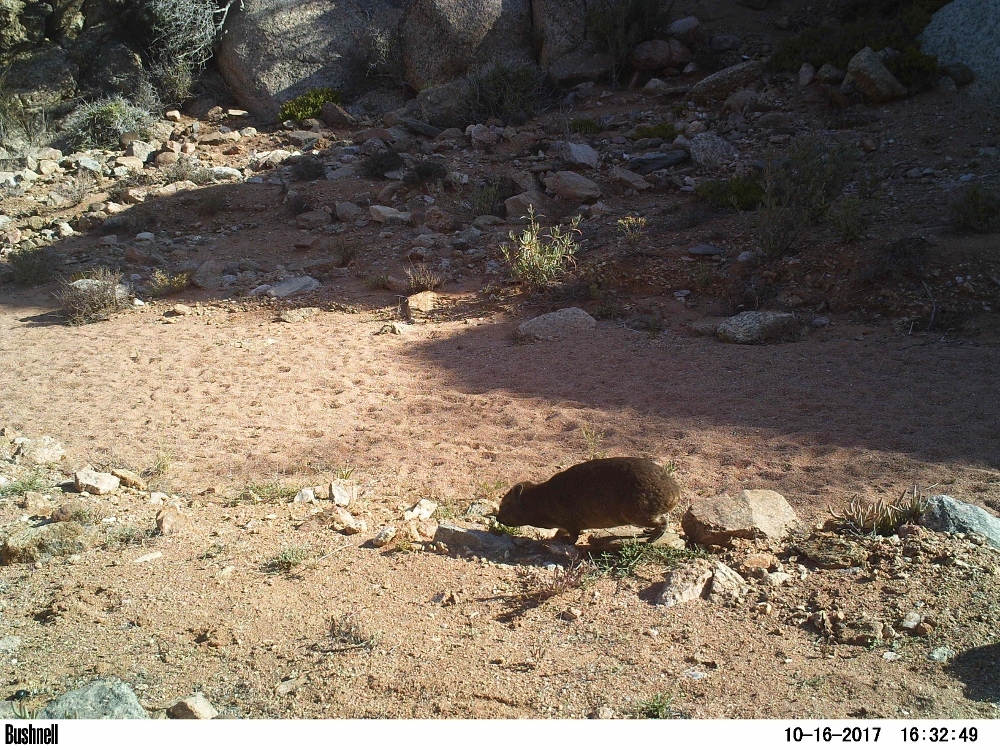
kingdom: Animalia
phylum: Chordata
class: Mammalia
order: Hyracoidea
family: Procaviidae
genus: Procavia
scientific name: Procavia capensis
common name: Rock hyrax
